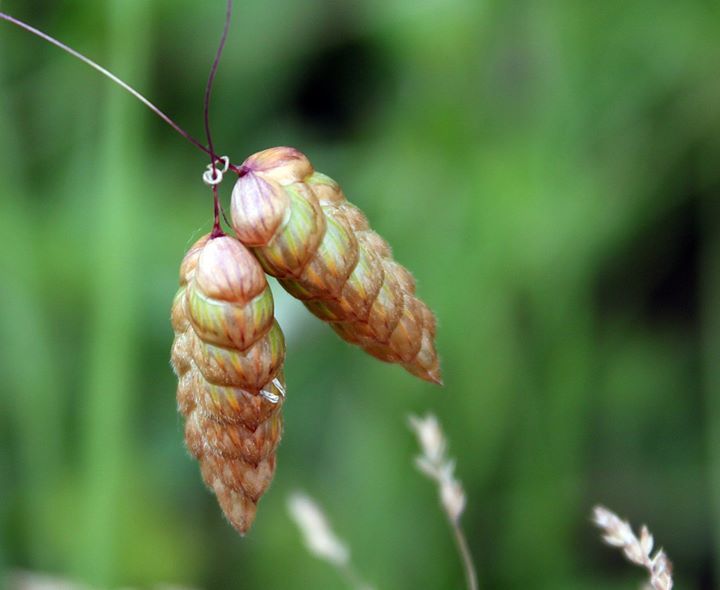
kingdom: Plantae
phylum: Tracheophyta
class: Liliopsida
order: Poales
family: Poaceae
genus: Briza
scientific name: Briza maxima
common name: Big quakinggrass
